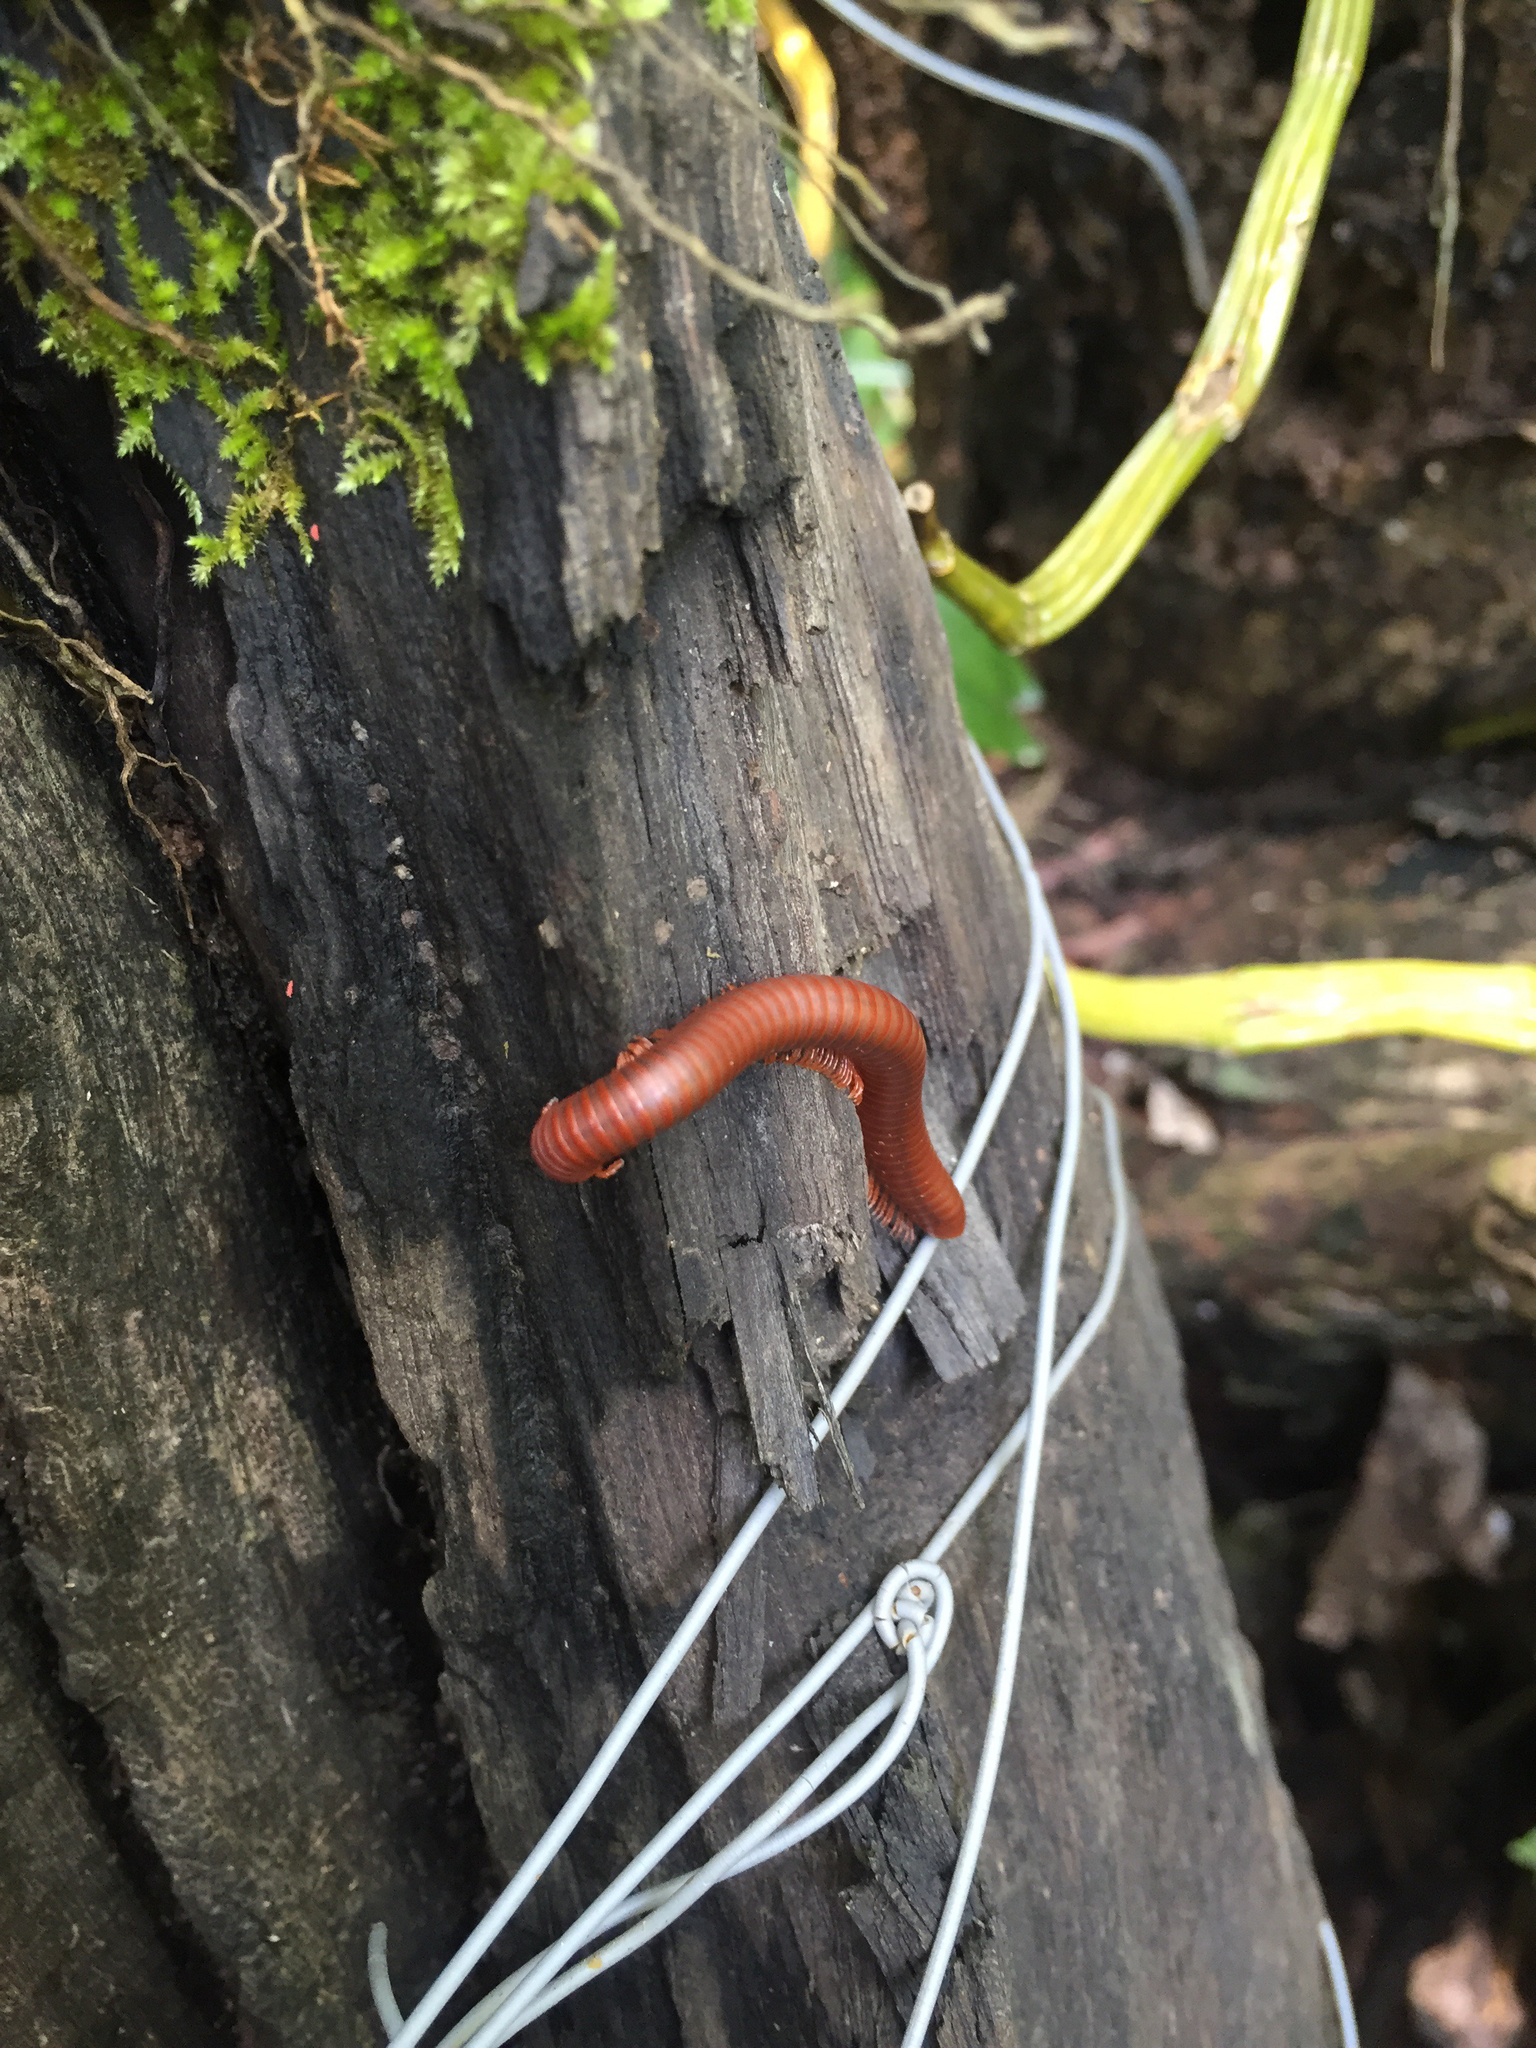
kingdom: Animalia
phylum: Arthropoda
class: Diplopoda
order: Spirobolida
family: Pachybolidae
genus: Trigoniulus
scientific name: Trigoniulus corallinus
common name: Millipede
